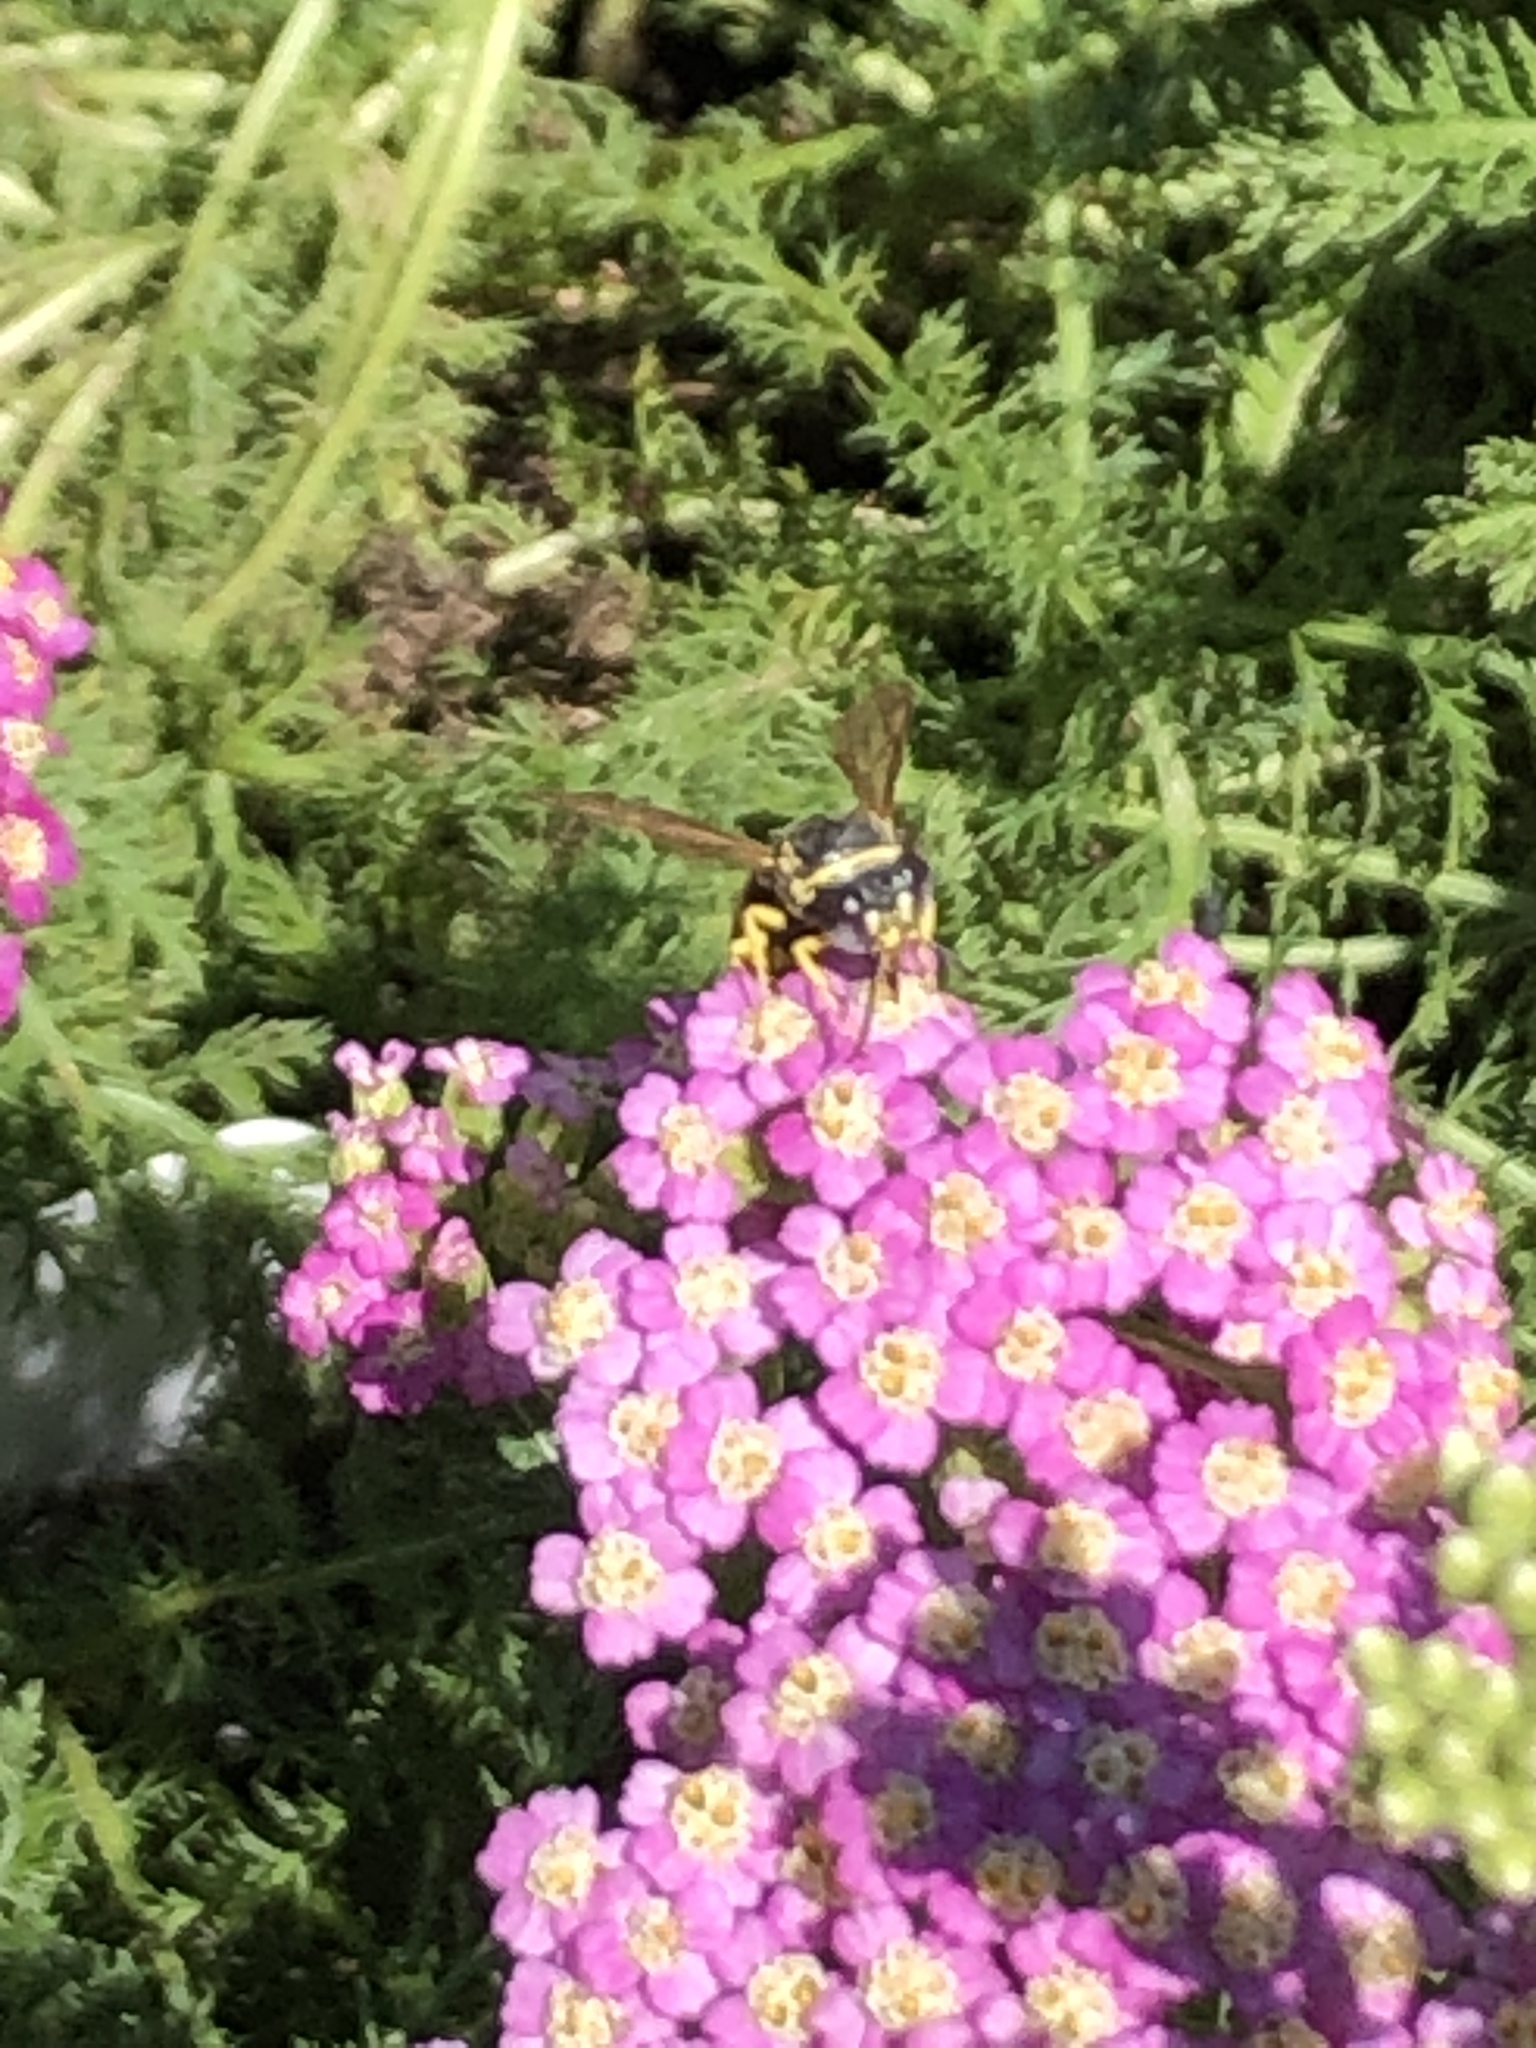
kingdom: Animalia
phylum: Arthropoda
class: Insecta
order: Hymenoptera
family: Crabronidae
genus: Bicyrtes
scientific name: Bicyrtes capnopterus
